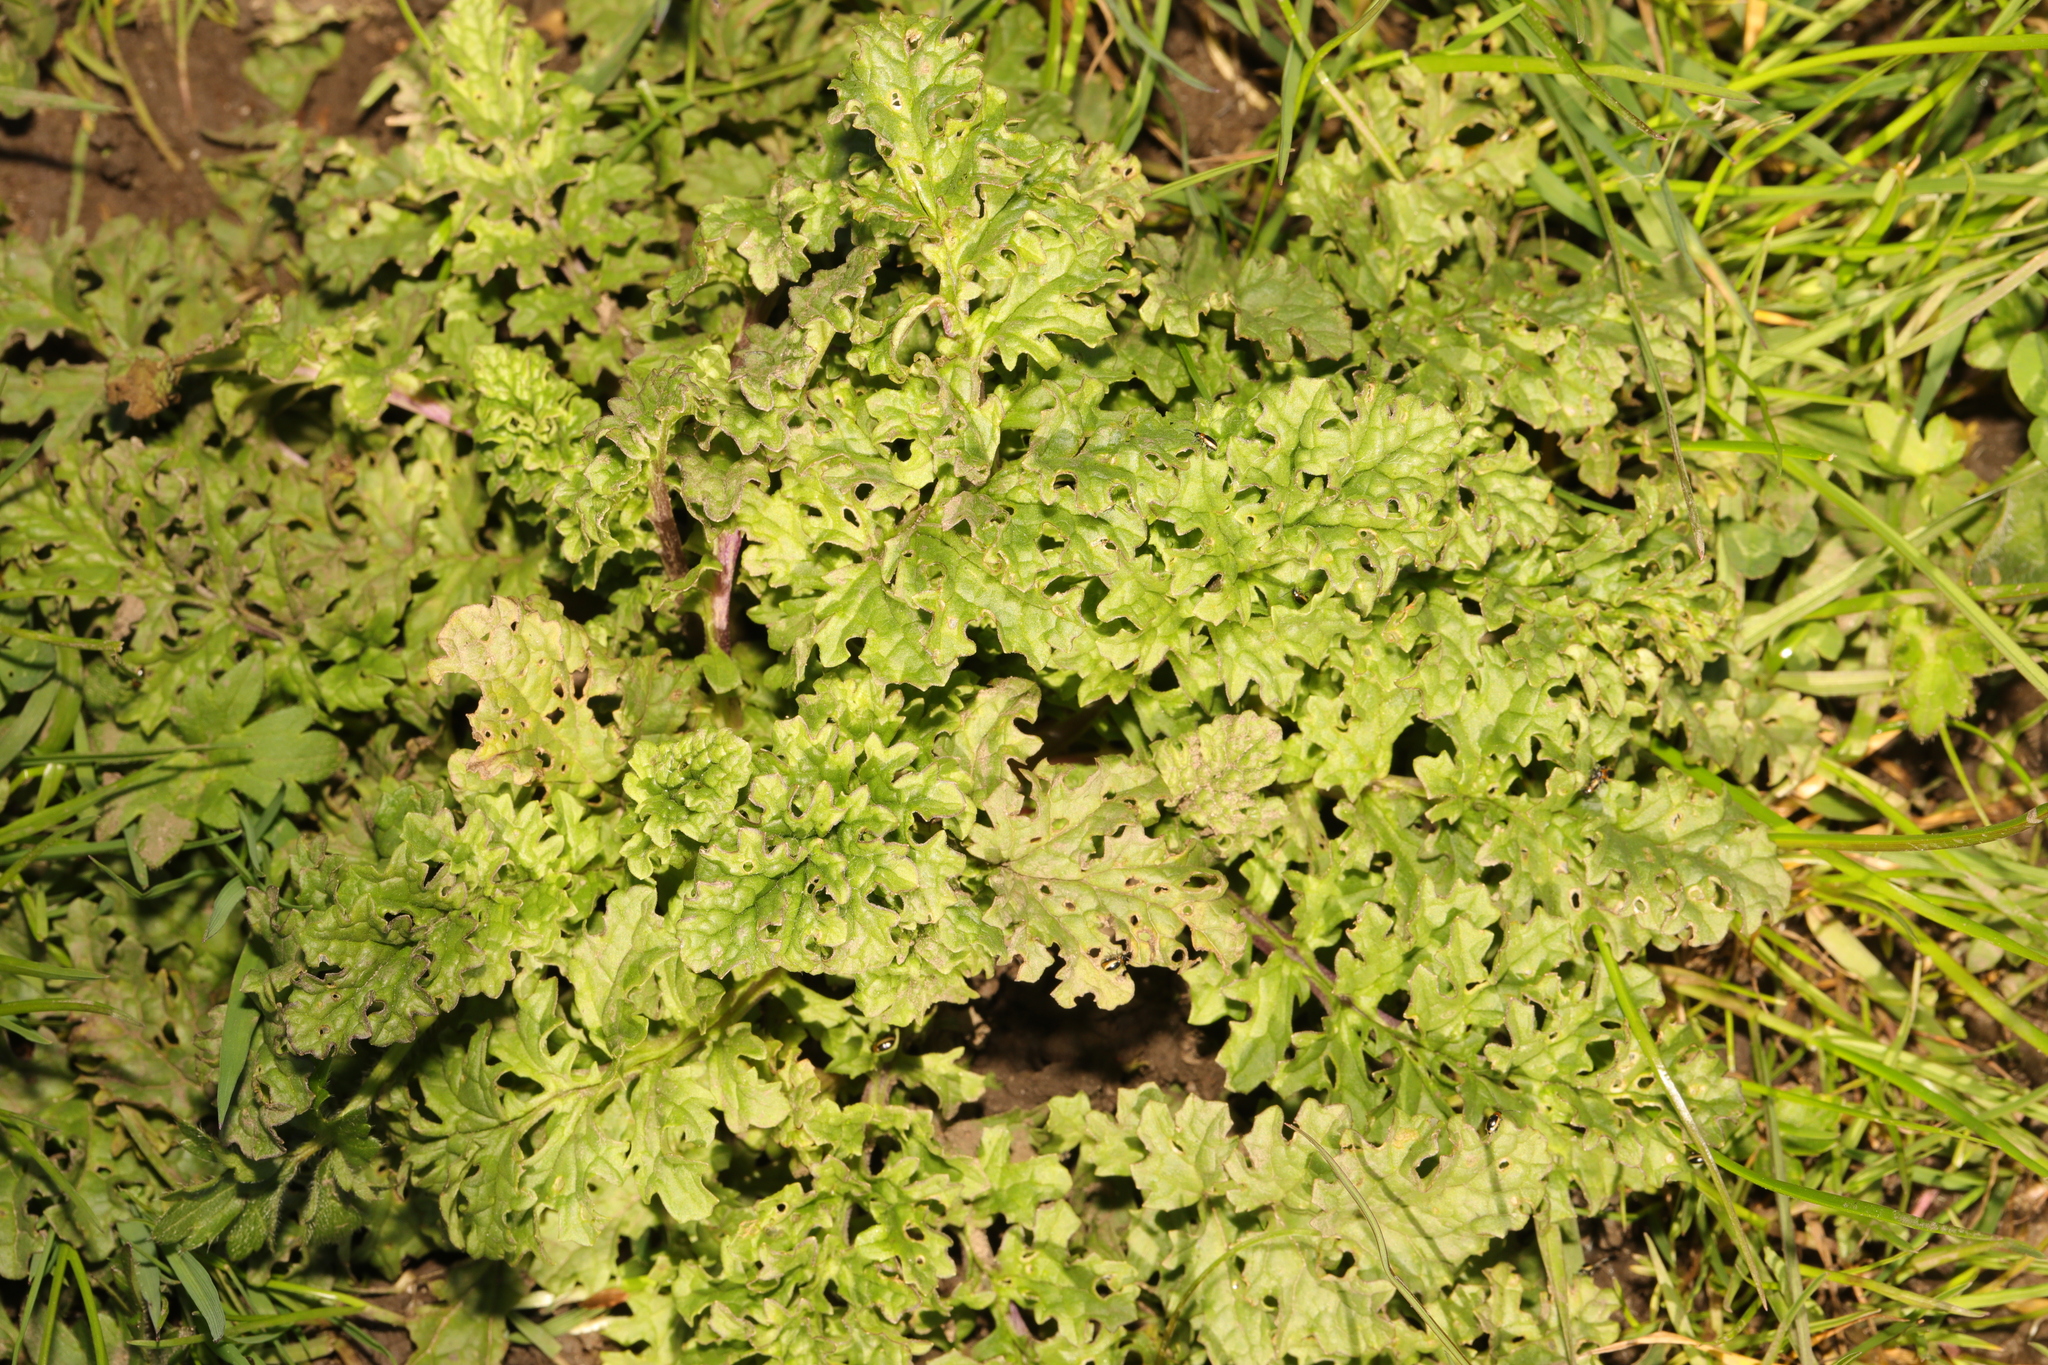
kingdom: Plantae
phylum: Tracheophyta
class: Magnoliopsida
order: Asterales
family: Asteraceae
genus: Jacobaea
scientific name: Jacobaea vulgaris
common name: Stinking willie
